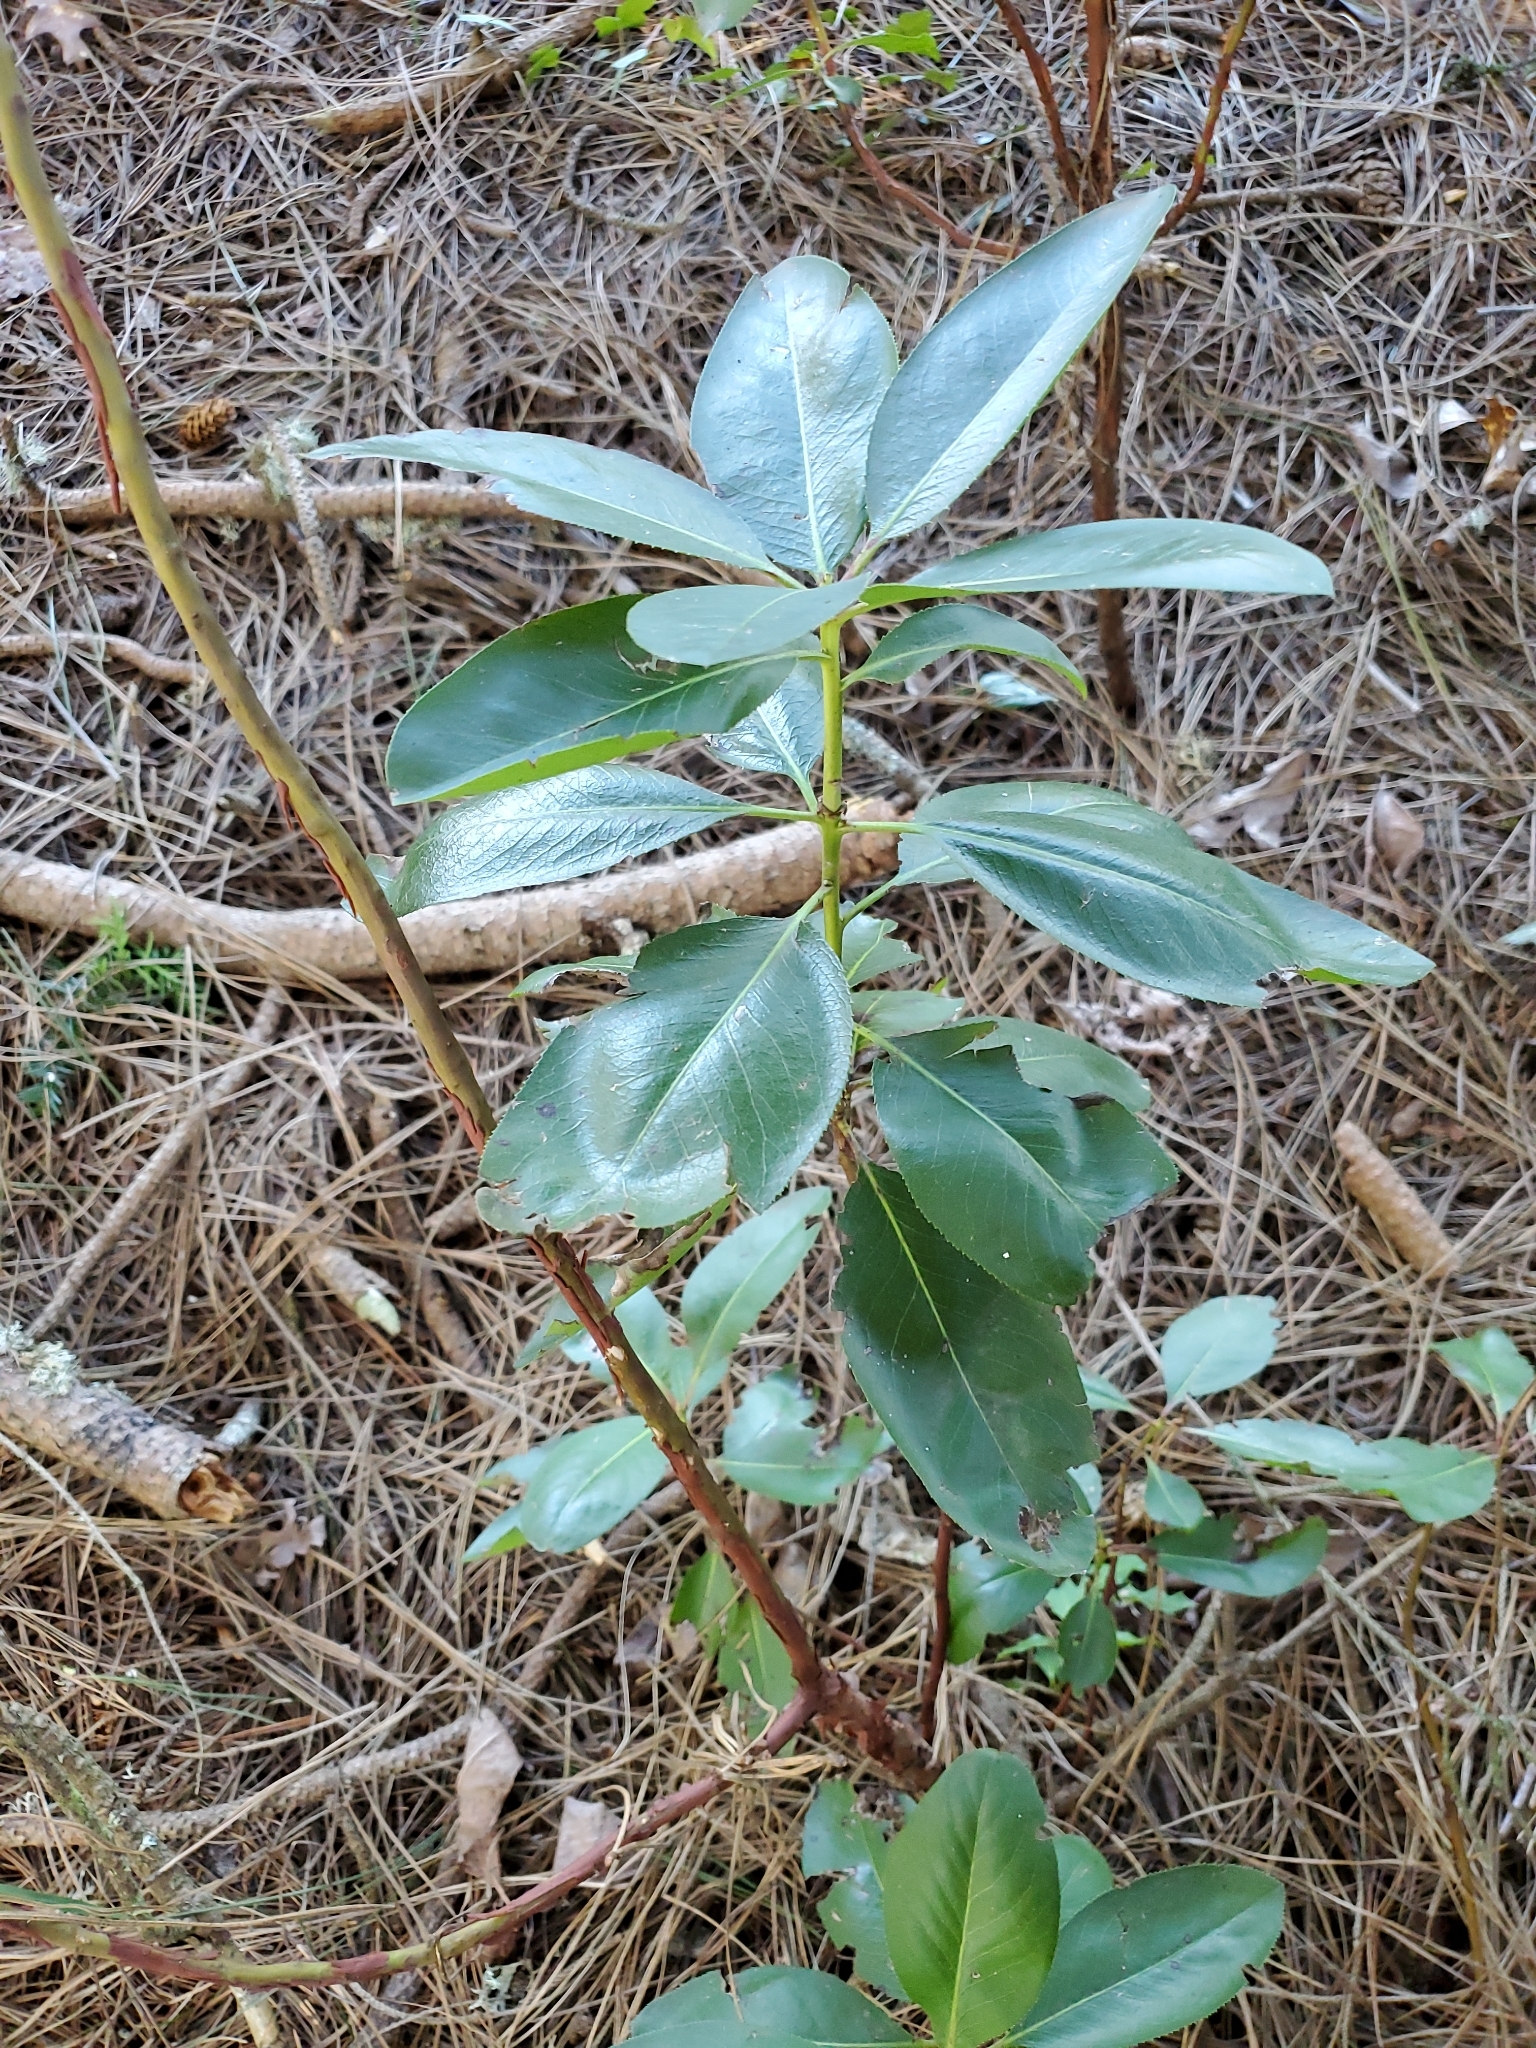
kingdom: Plantae
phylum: Tracheophyta
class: Magnoliopsida
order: Ericales
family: Ericaceae
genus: Arbutus
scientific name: Arbutus menziesii
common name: Pacific madrone
